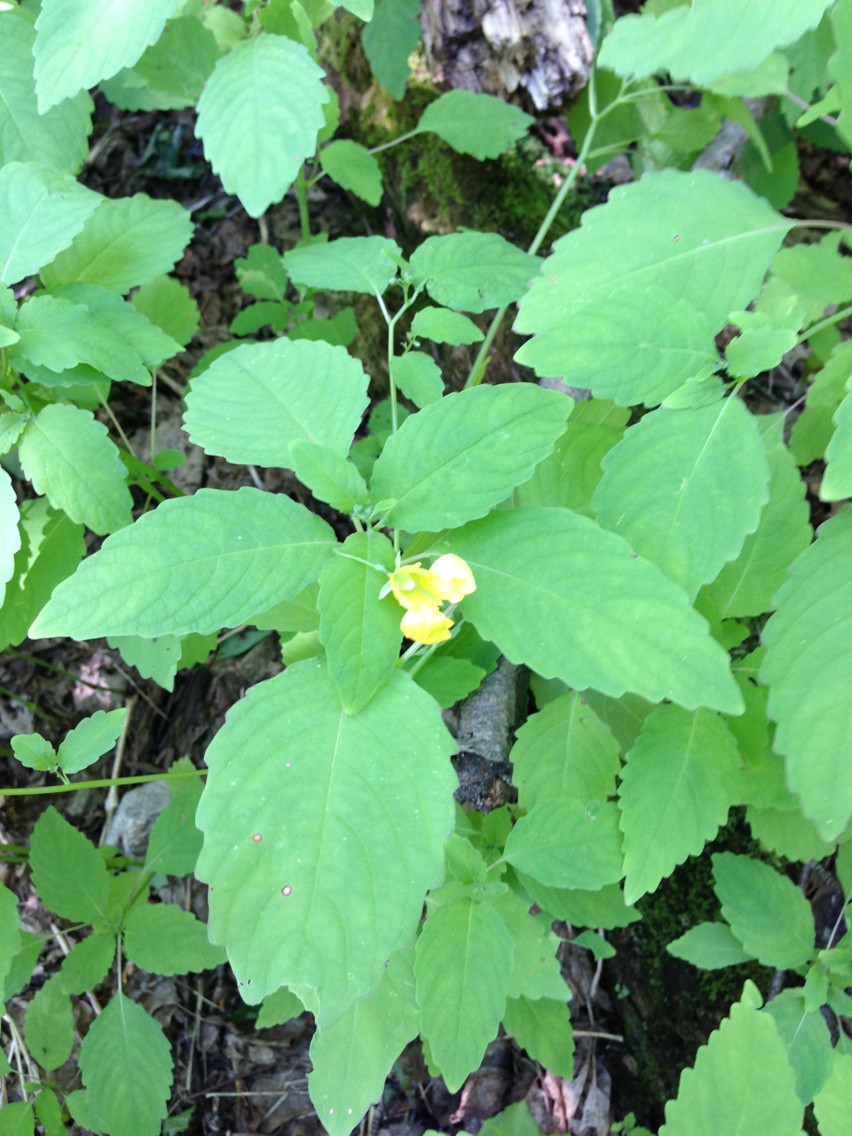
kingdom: Plantae
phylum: Tracheophyta
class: Magnoliopsida
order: Ericales
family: Balsaminaceae
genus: Impatiens
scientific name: Impatiens pallida
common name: Pale snapweed
